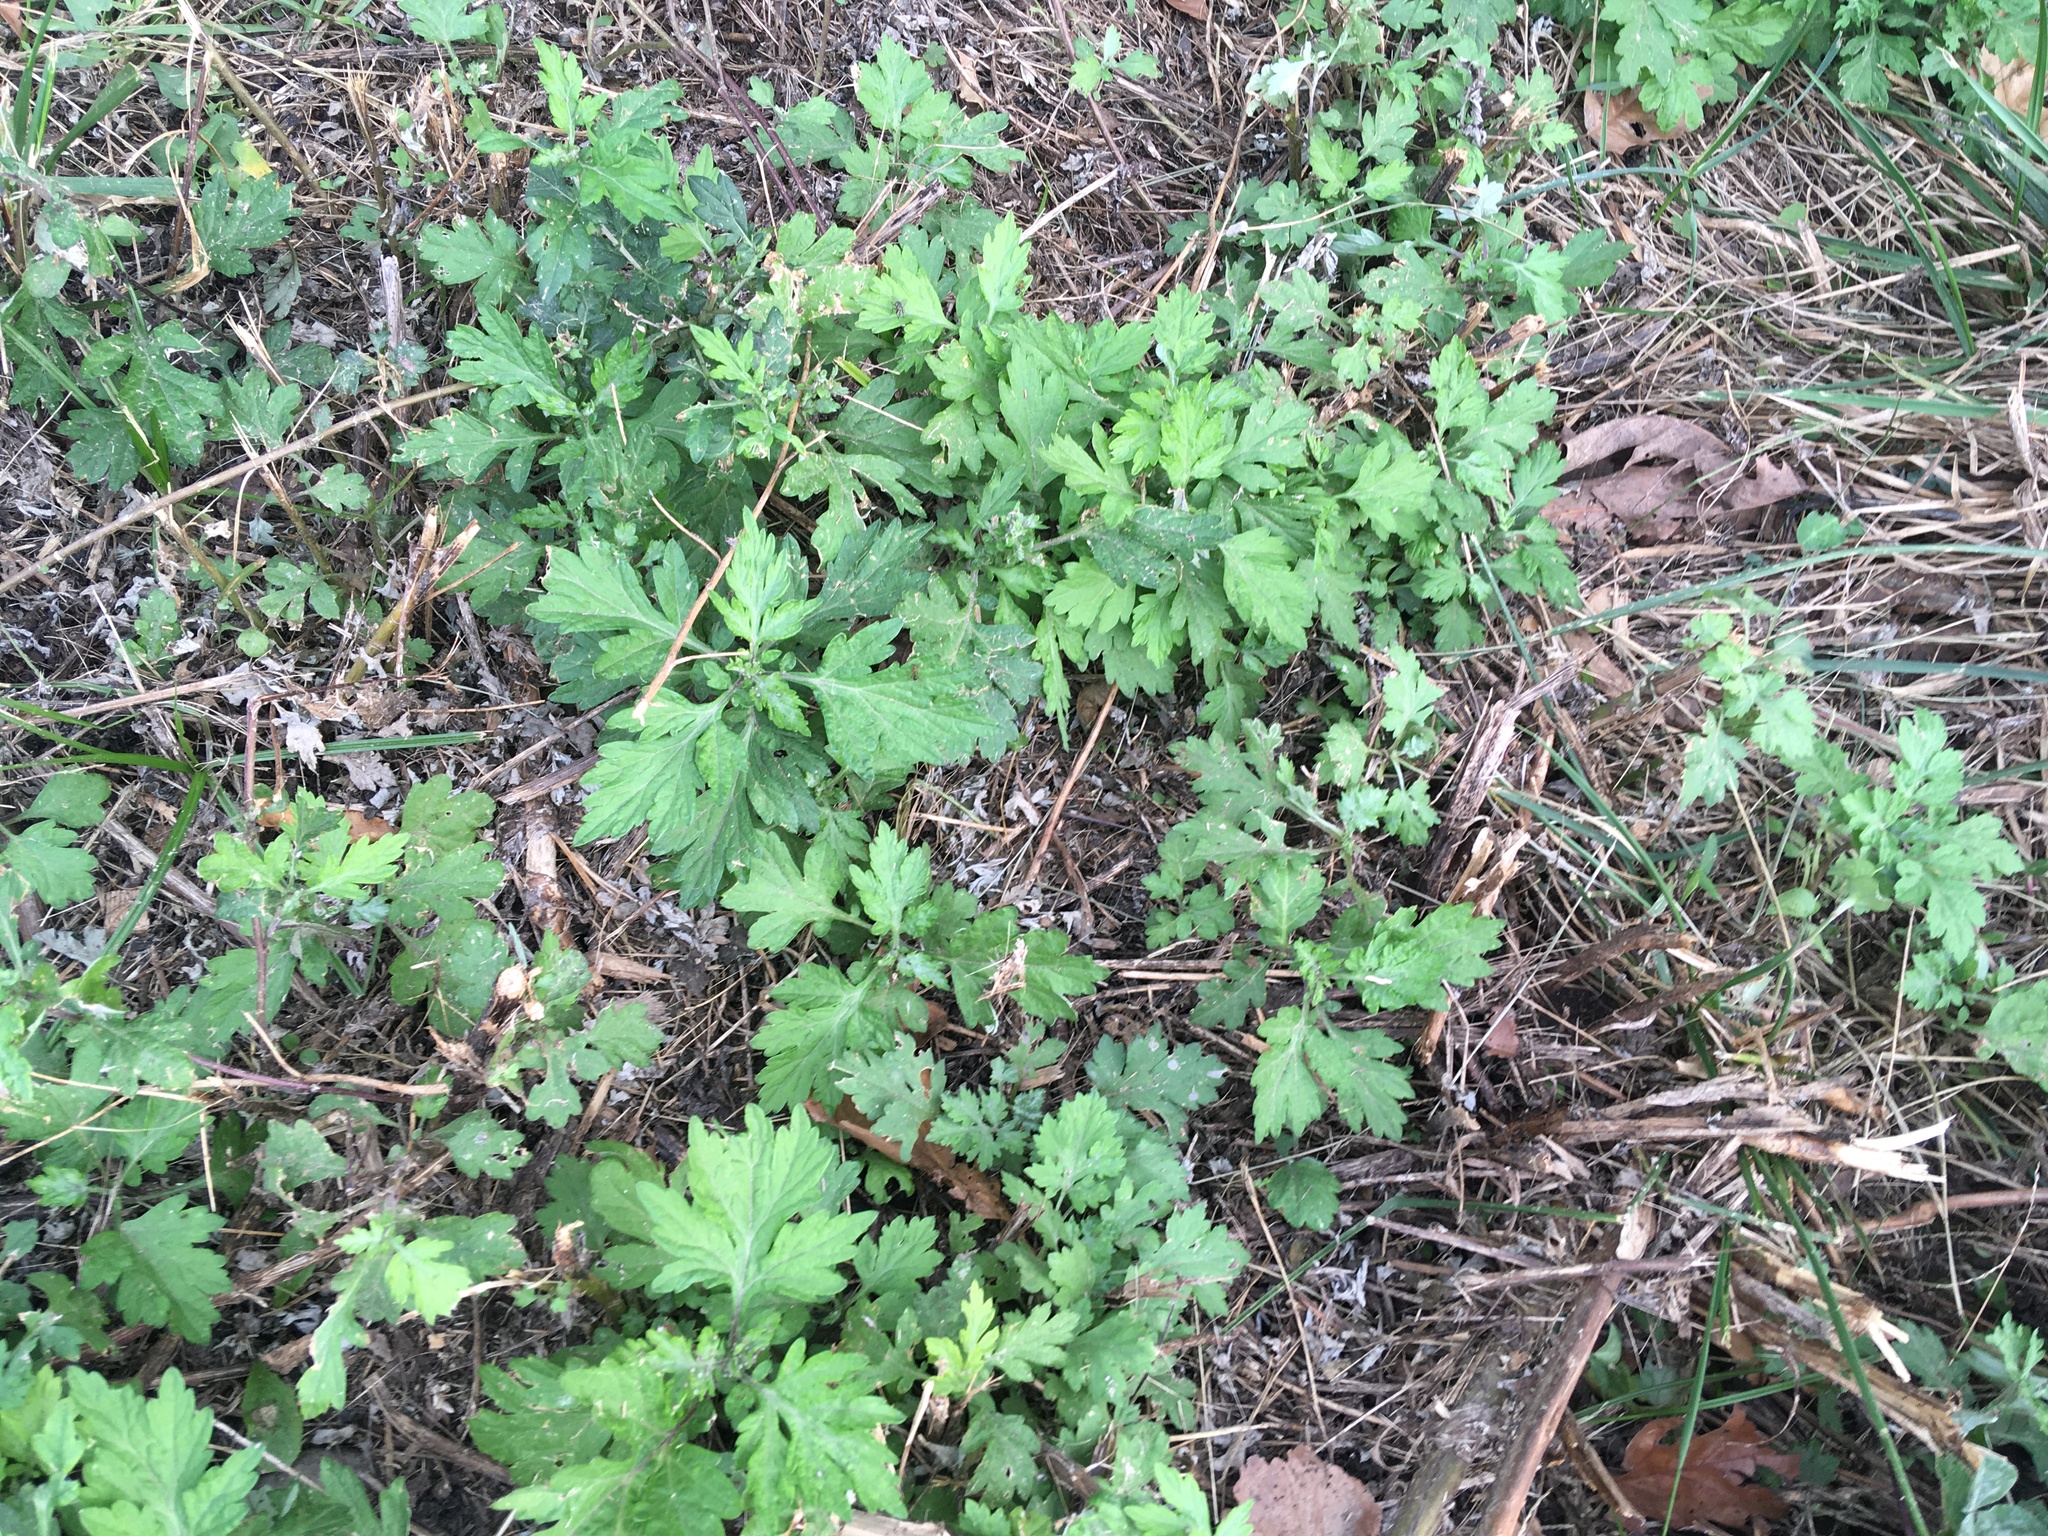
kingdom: Plantae
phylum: Tracheophyta
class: Magnoliopsida
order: Asterales
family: Asteraceae
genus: Artemisia
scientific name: Artemisia vulgaris
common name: Mugwort
